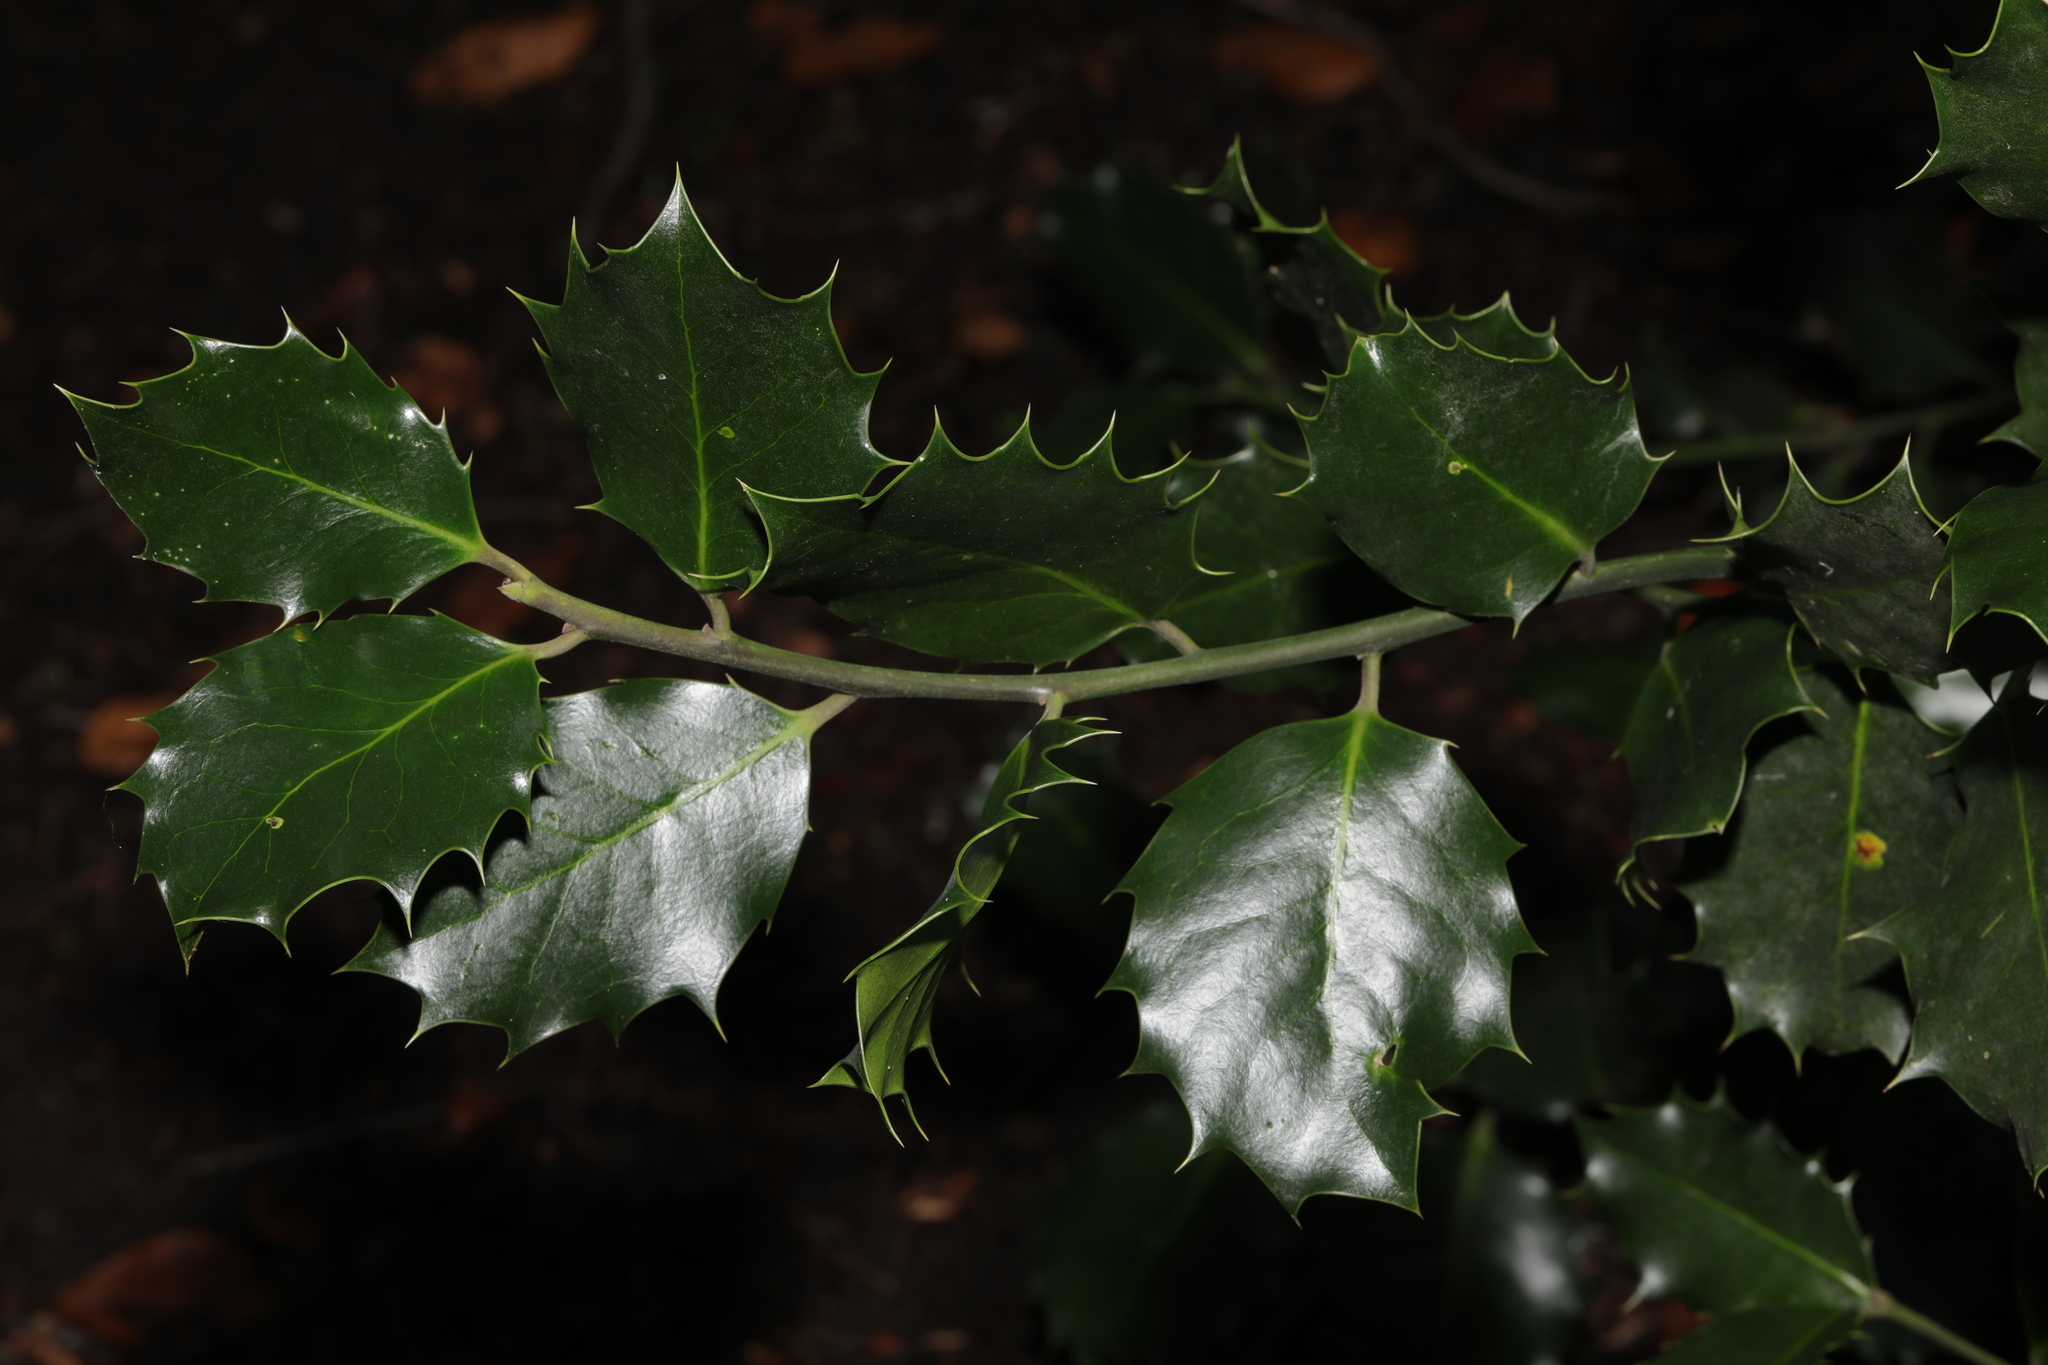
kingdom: Plantae
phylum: Tracheophyta
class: Magnoliopsida
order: Aquifoliales
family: Aquifoliaceae
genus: Ilex
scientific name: Ilex aquifolium
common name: English holly
